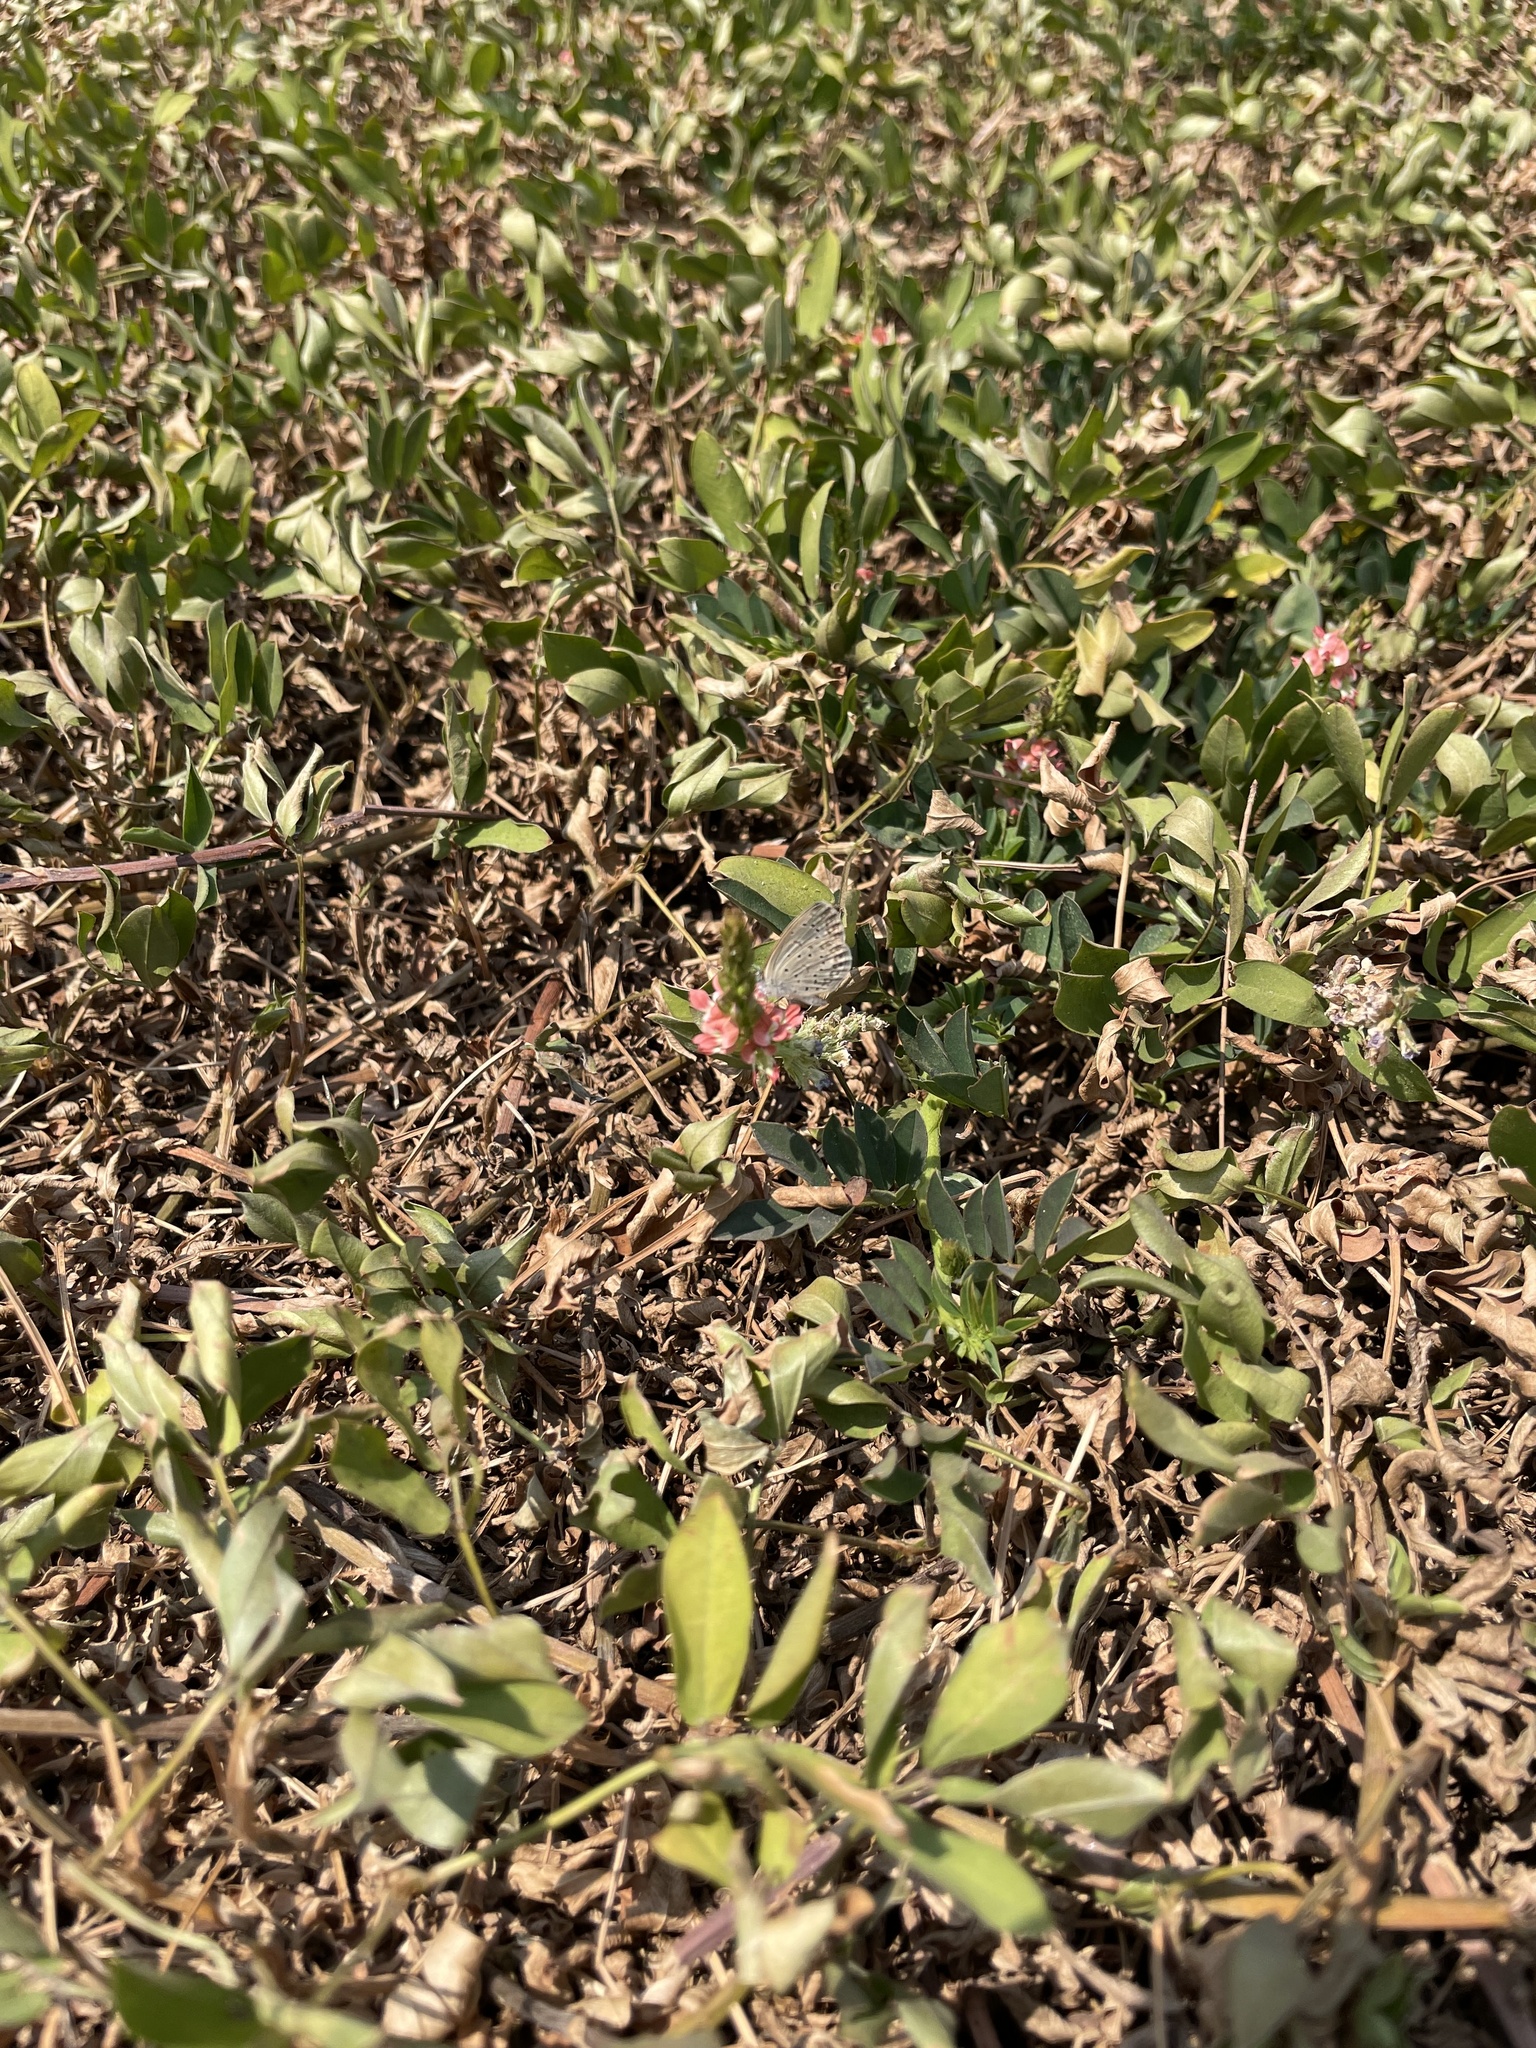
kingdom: Animalia
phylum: Arthropoda
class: Insecta
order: Lepidoptera
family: Lycaenidae
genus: Zizeeria
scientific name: Zizeeria knysna
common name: African grass blue
